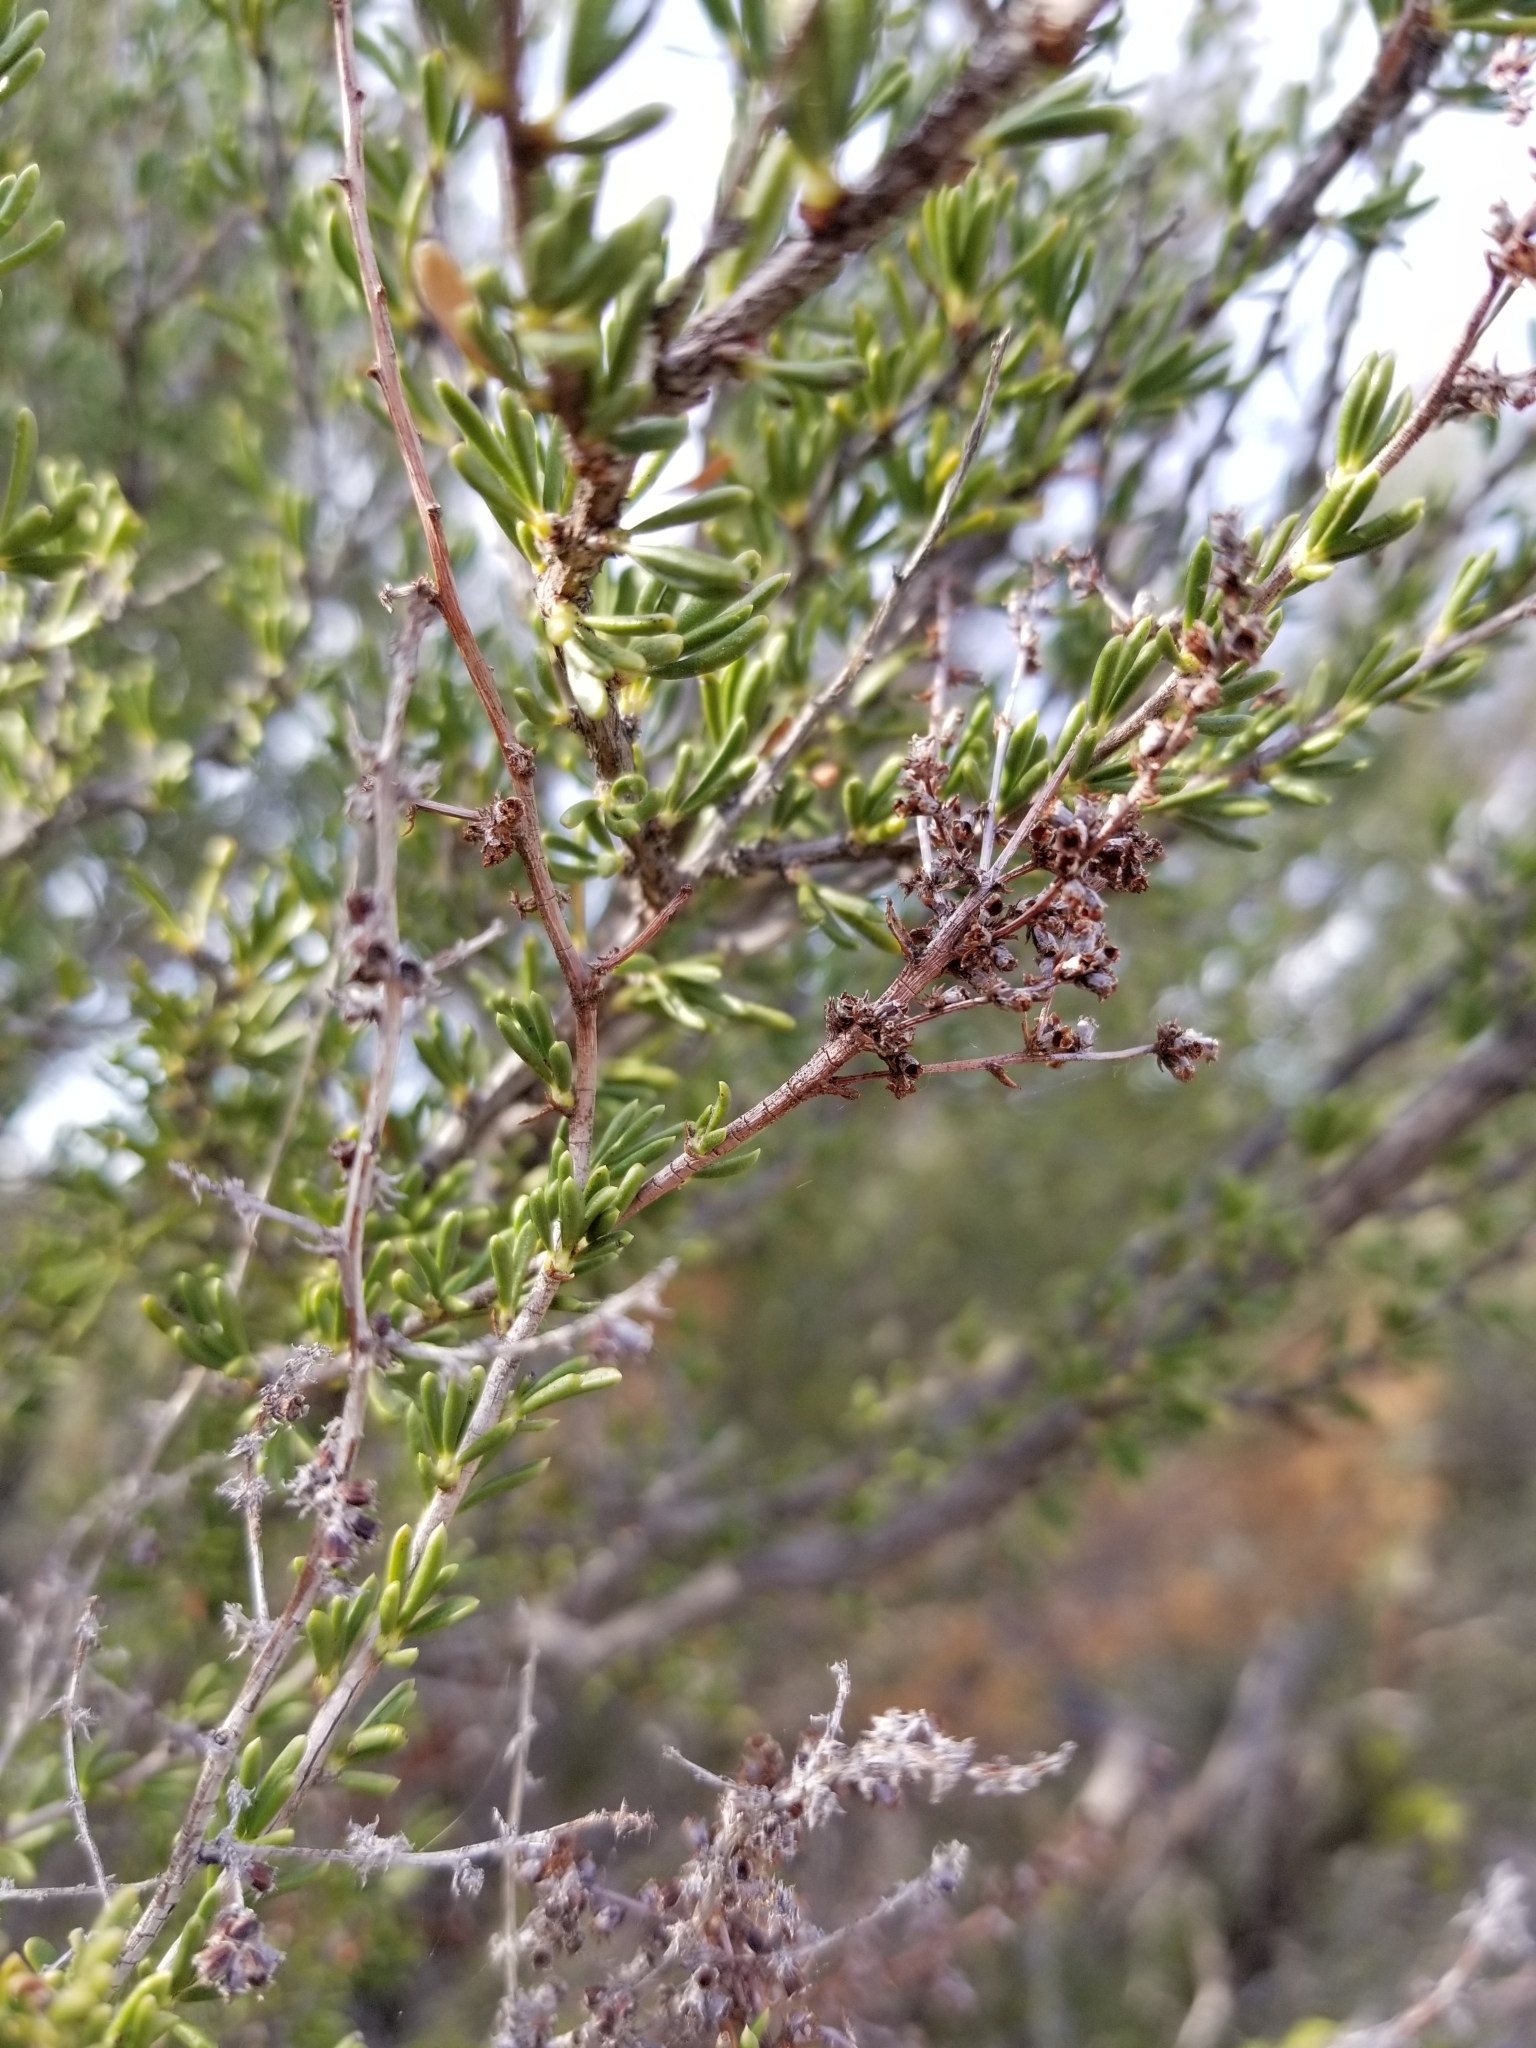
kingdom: Plantae
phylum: Tracheophyta
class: Magnoliopsida
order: Rosales
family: Rosaceae
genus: Adenostoma
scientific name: Adenostoma fasciculatum
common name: Chamise
